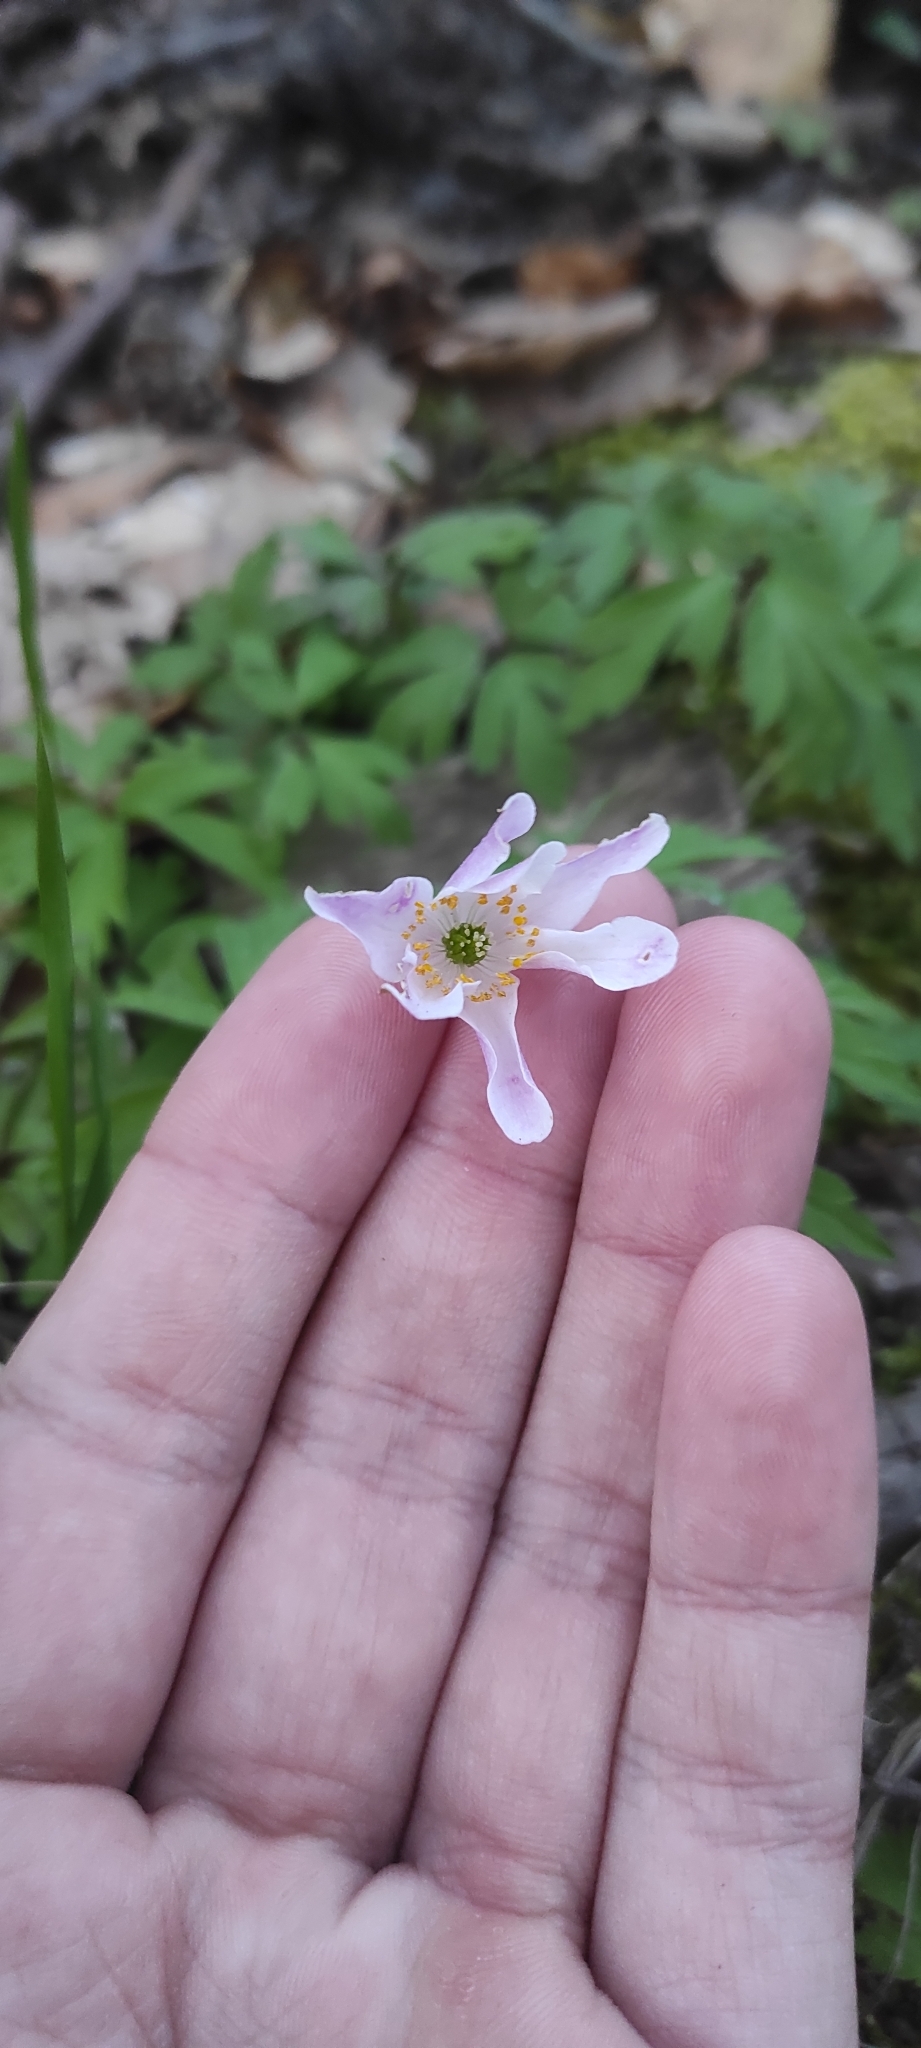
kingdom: Plantae
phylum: Tracheophyta
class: Magnoliopsida
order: Ranunculales
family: Ranunculaceae
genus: Anemone
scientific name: Anemone nemorosa
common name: Wood anemone
